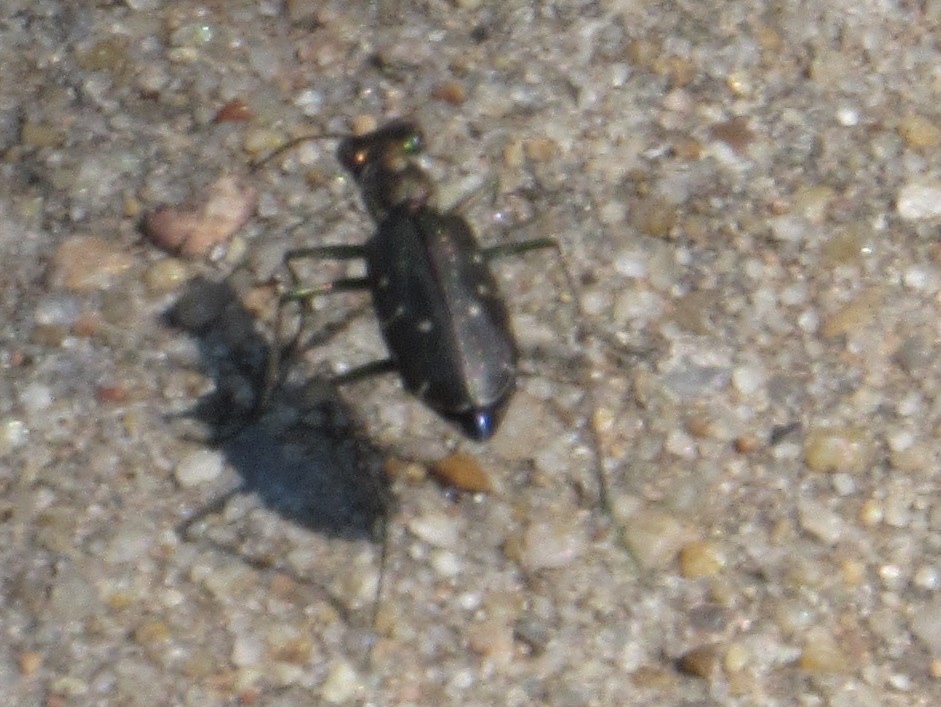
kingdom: Animalia
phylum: Arthropoda
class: Insecta
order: Coleoptera
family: Carabidae
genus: Cicindela
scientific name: Cicindela punctulata
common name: Punctured tiger beetle
